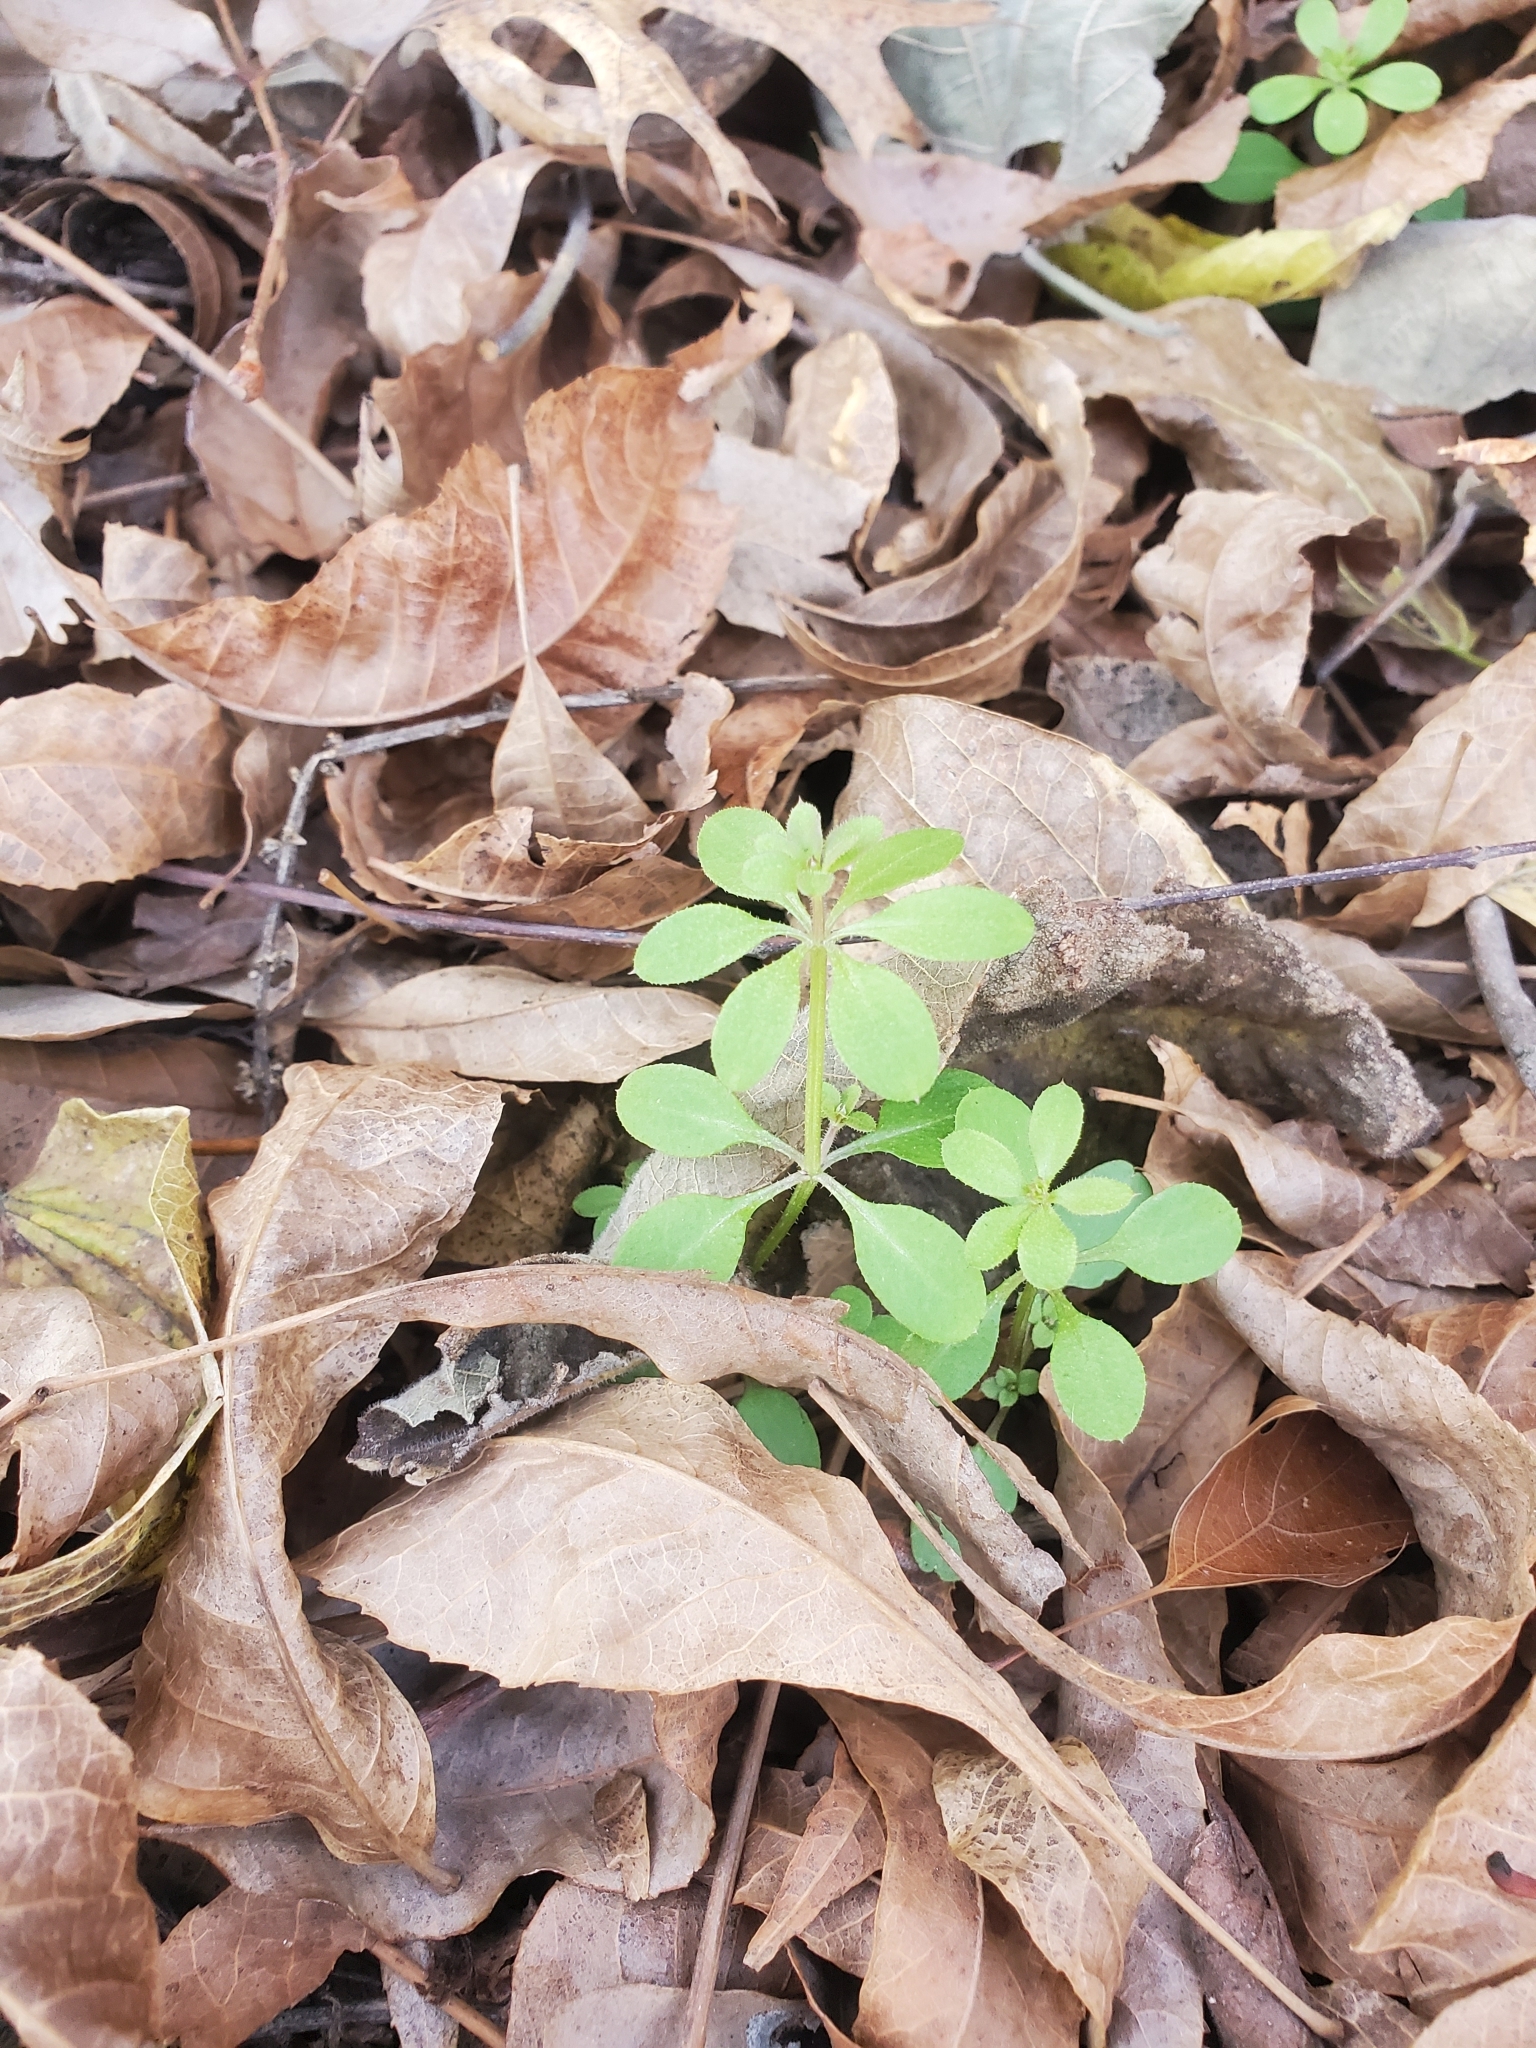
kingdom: Plantae
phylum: Tracheophyta
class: Magnoliopsida
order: Gentianales
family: Rubiaceae
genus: Galium
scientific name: Galium aparine
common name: Cleavers
